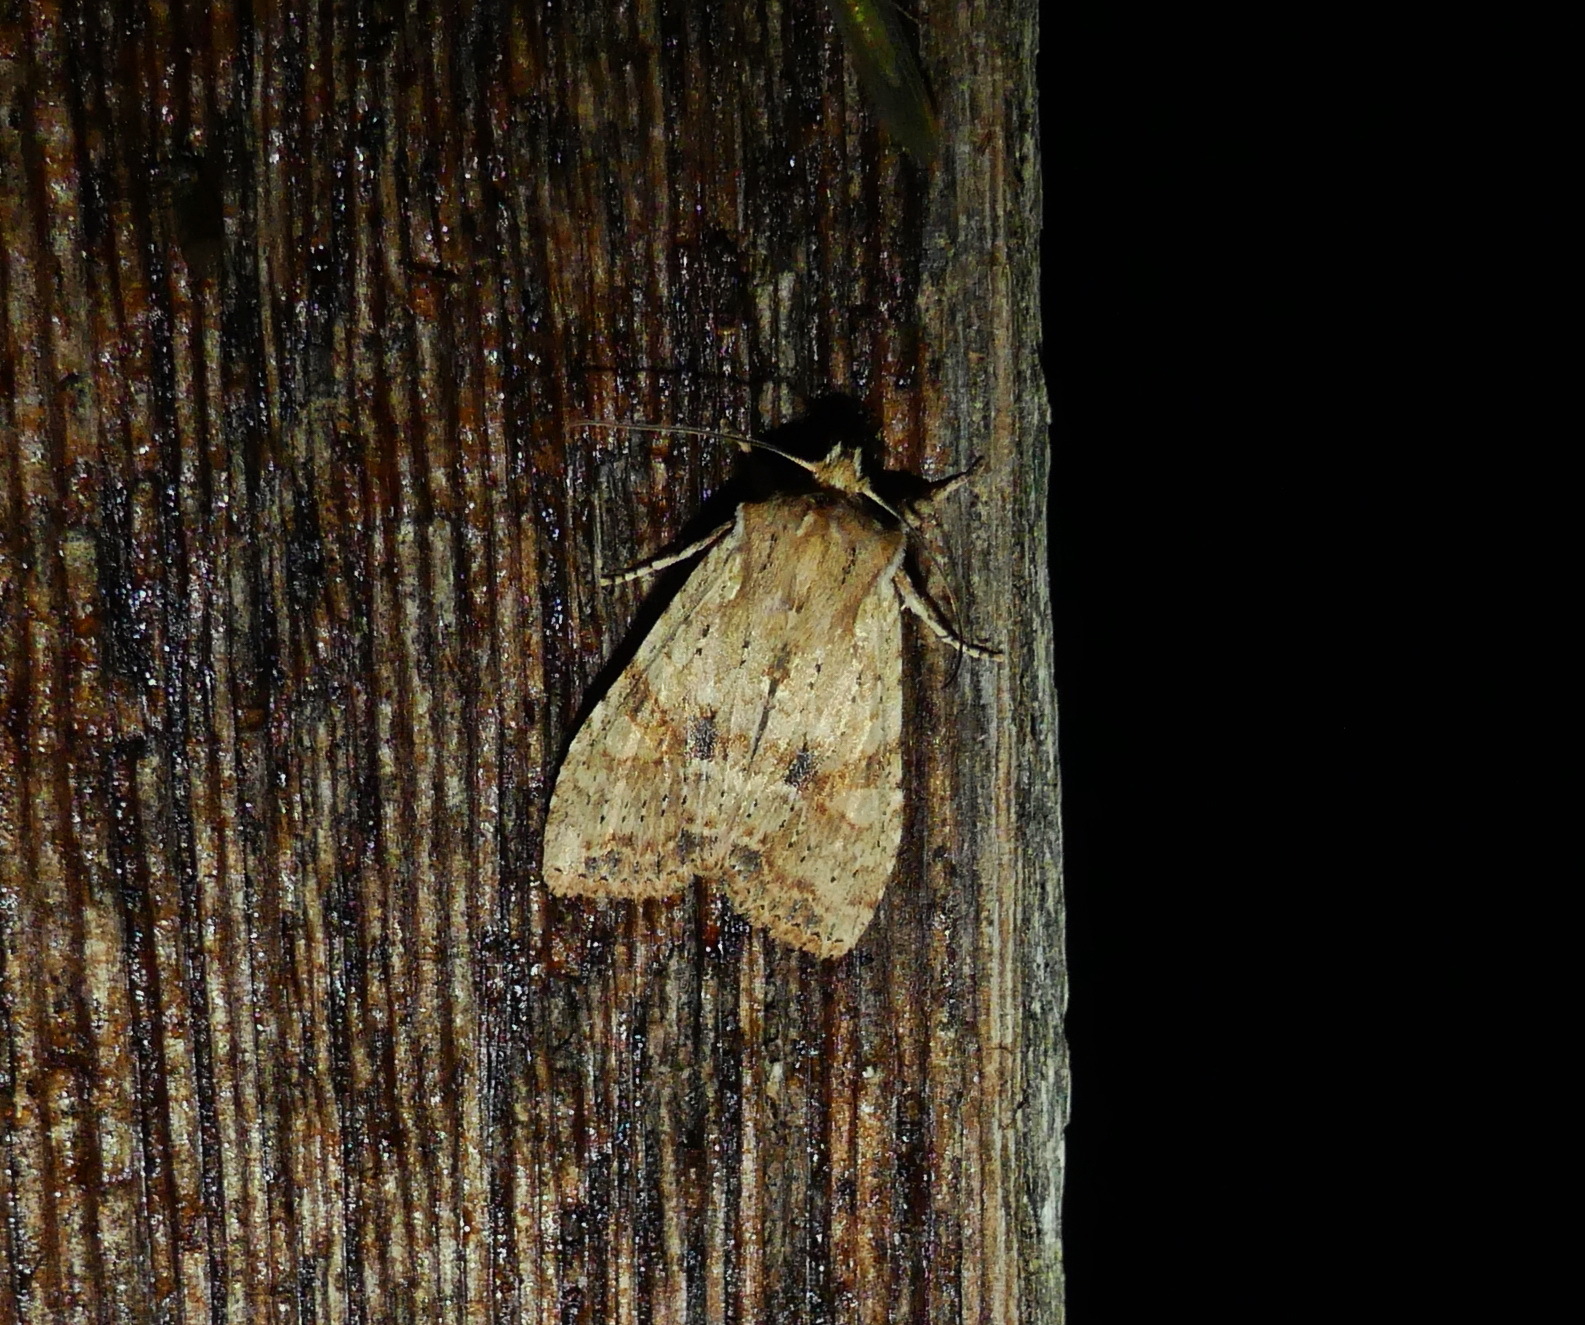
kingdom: Animalia
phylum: Arthropoda
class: Insecta
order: Lepidoptera
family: Noctuidae
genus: Lithophane
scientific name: Lithophane innominata
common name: Nameless pinion moth
